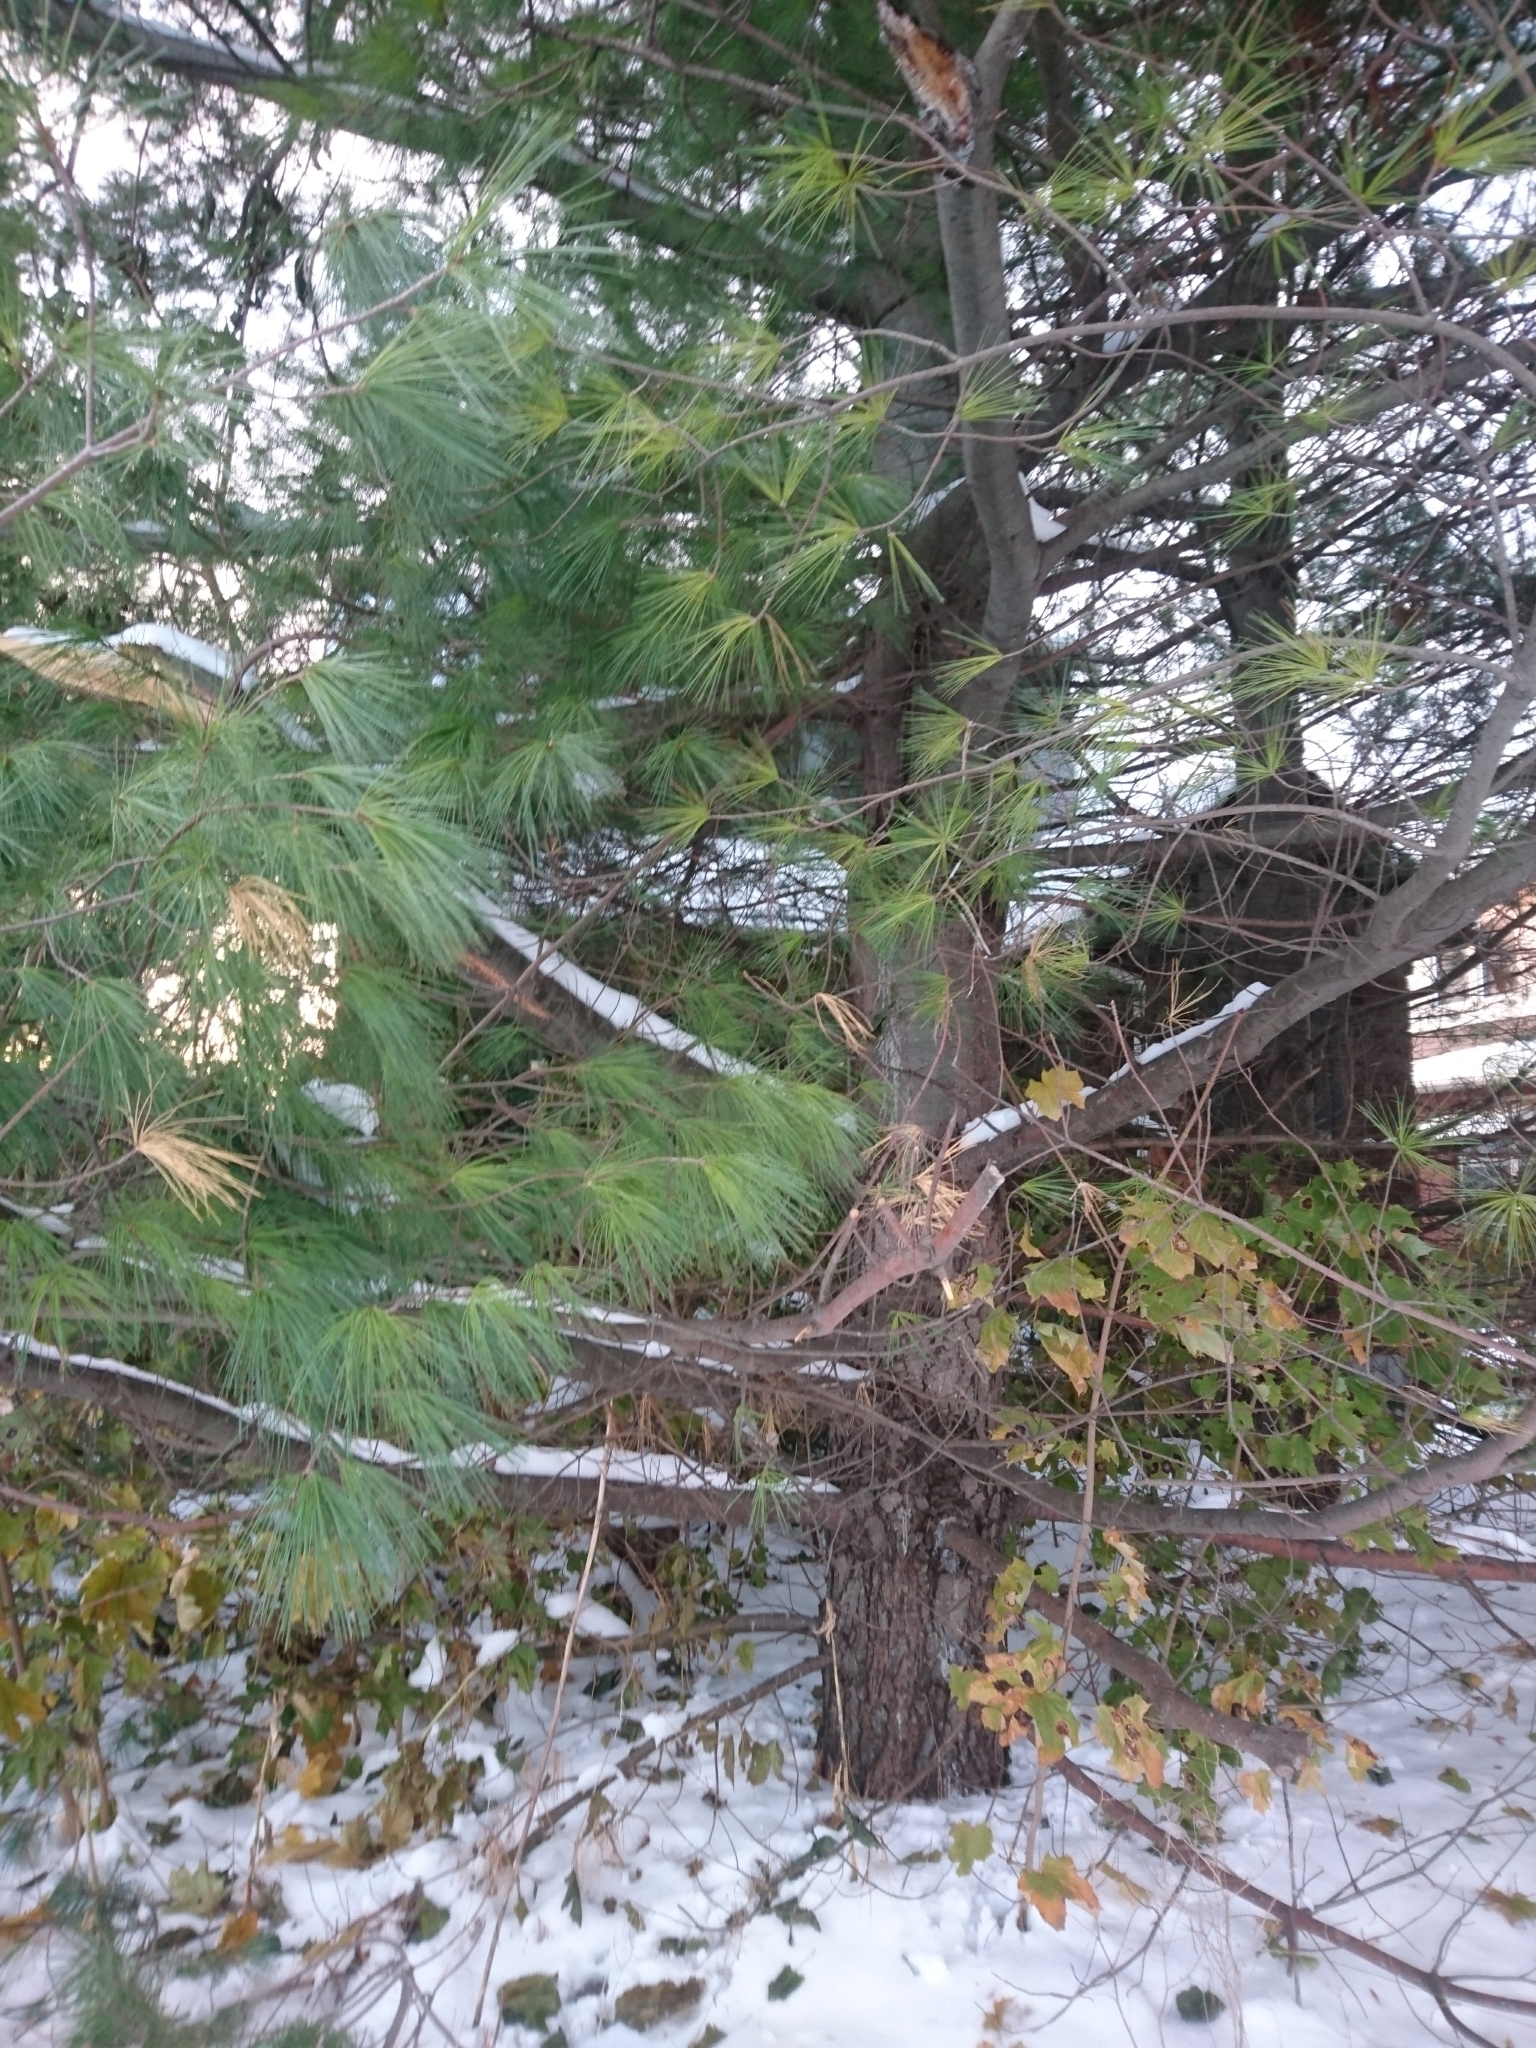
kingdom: Plantae
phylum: Tracheophyta
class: Pinopsida
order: Pinales
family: Pinaceae
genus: Pinus
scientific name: Pinus strobus
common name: Weymouth pine
